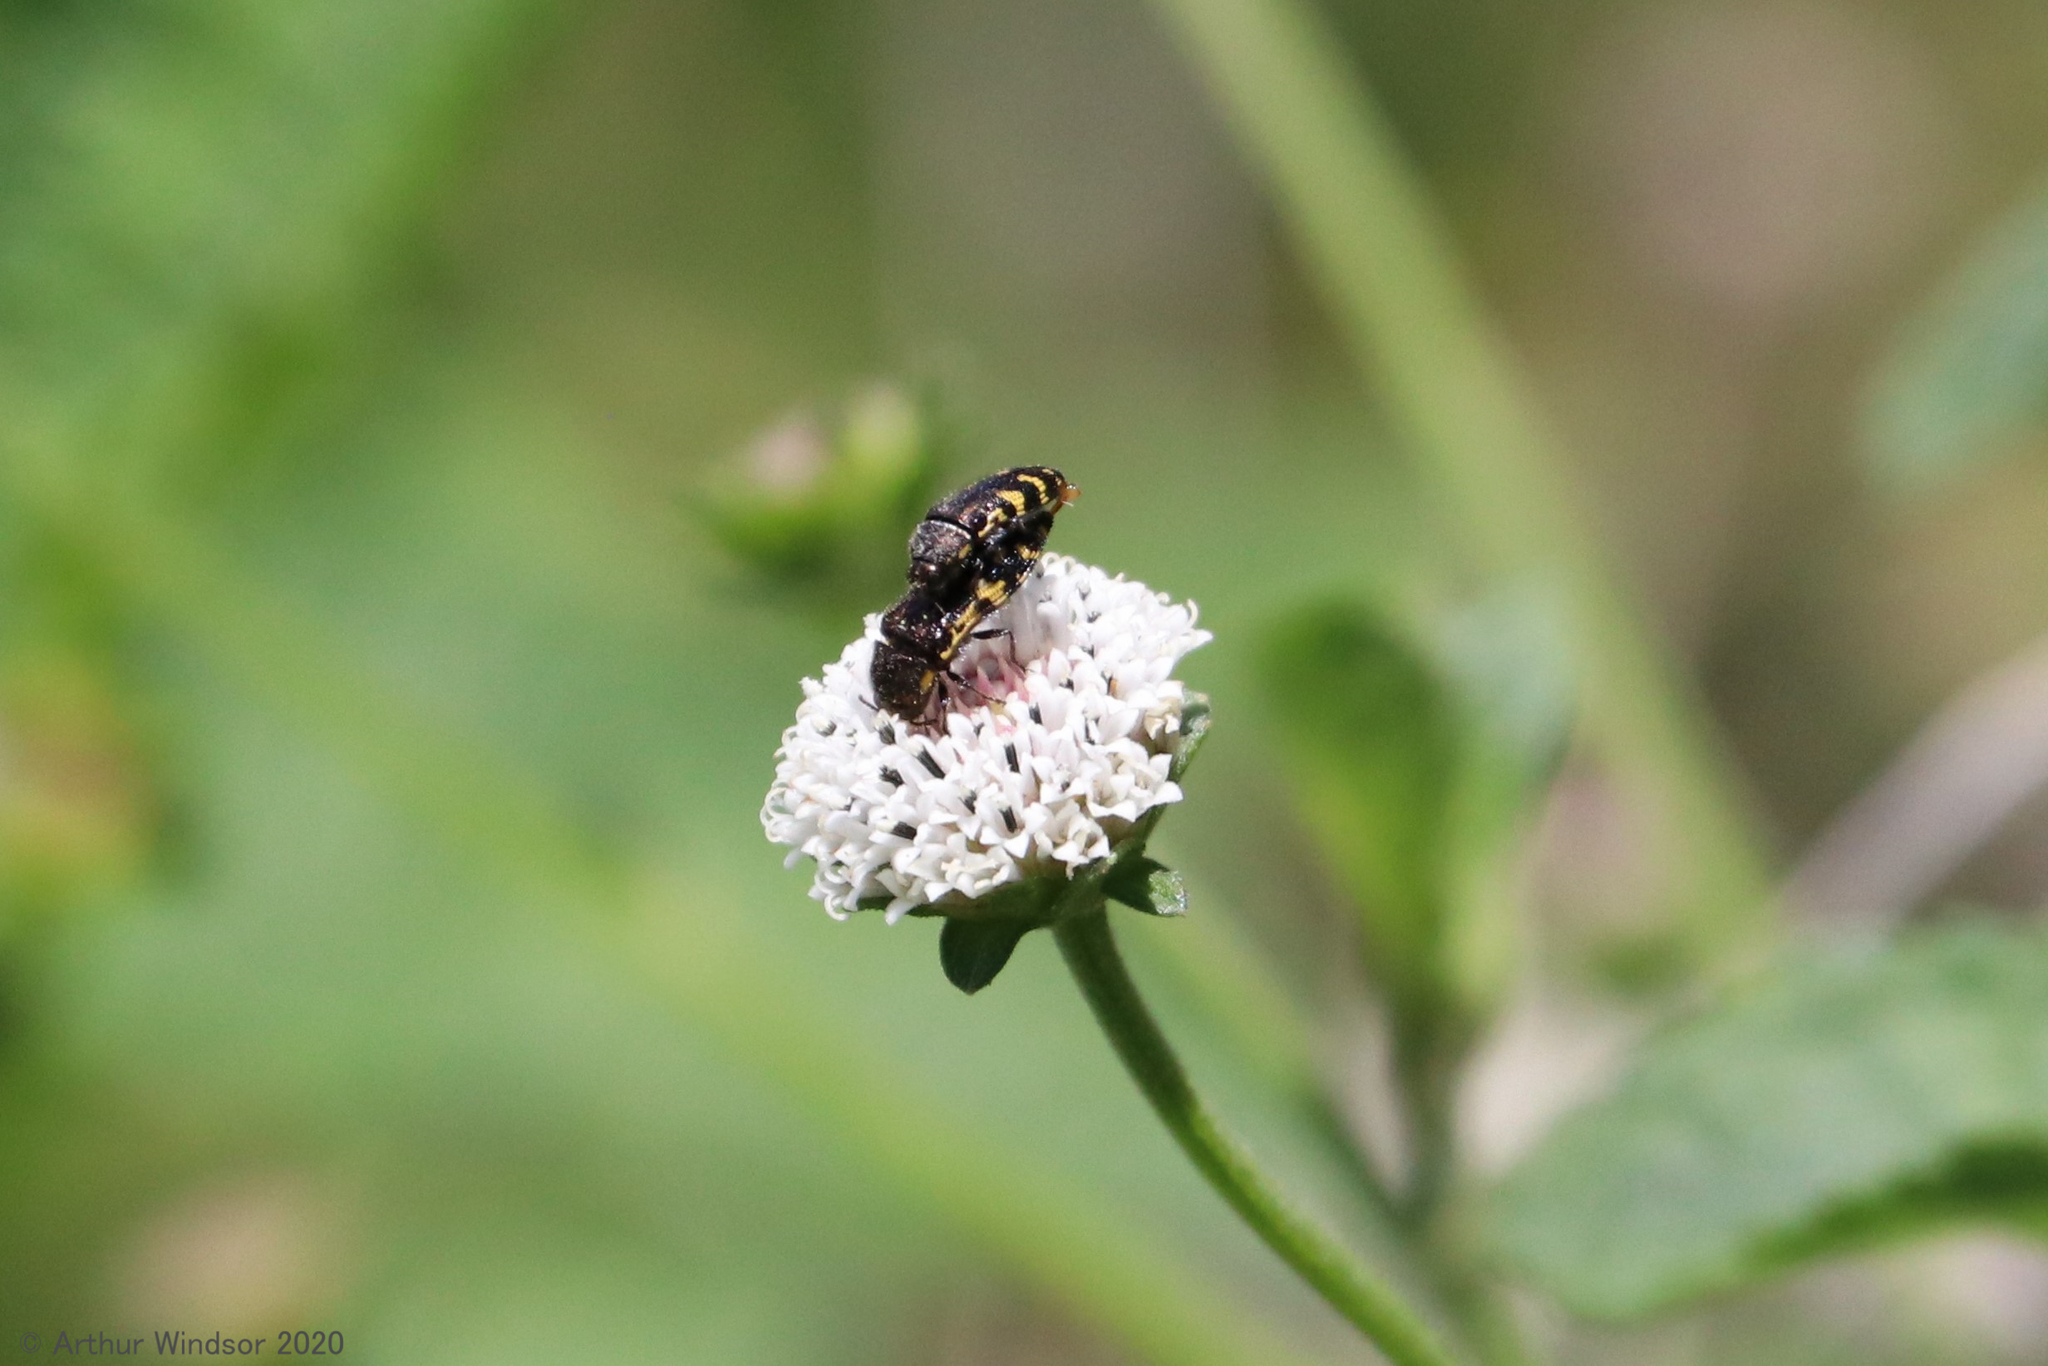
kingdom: Animalia
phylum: Arthropoda
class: Insecta
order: Coleoptera
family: Buprestidae
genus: Acmaeodera
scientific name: Acmaeodera pulchella
